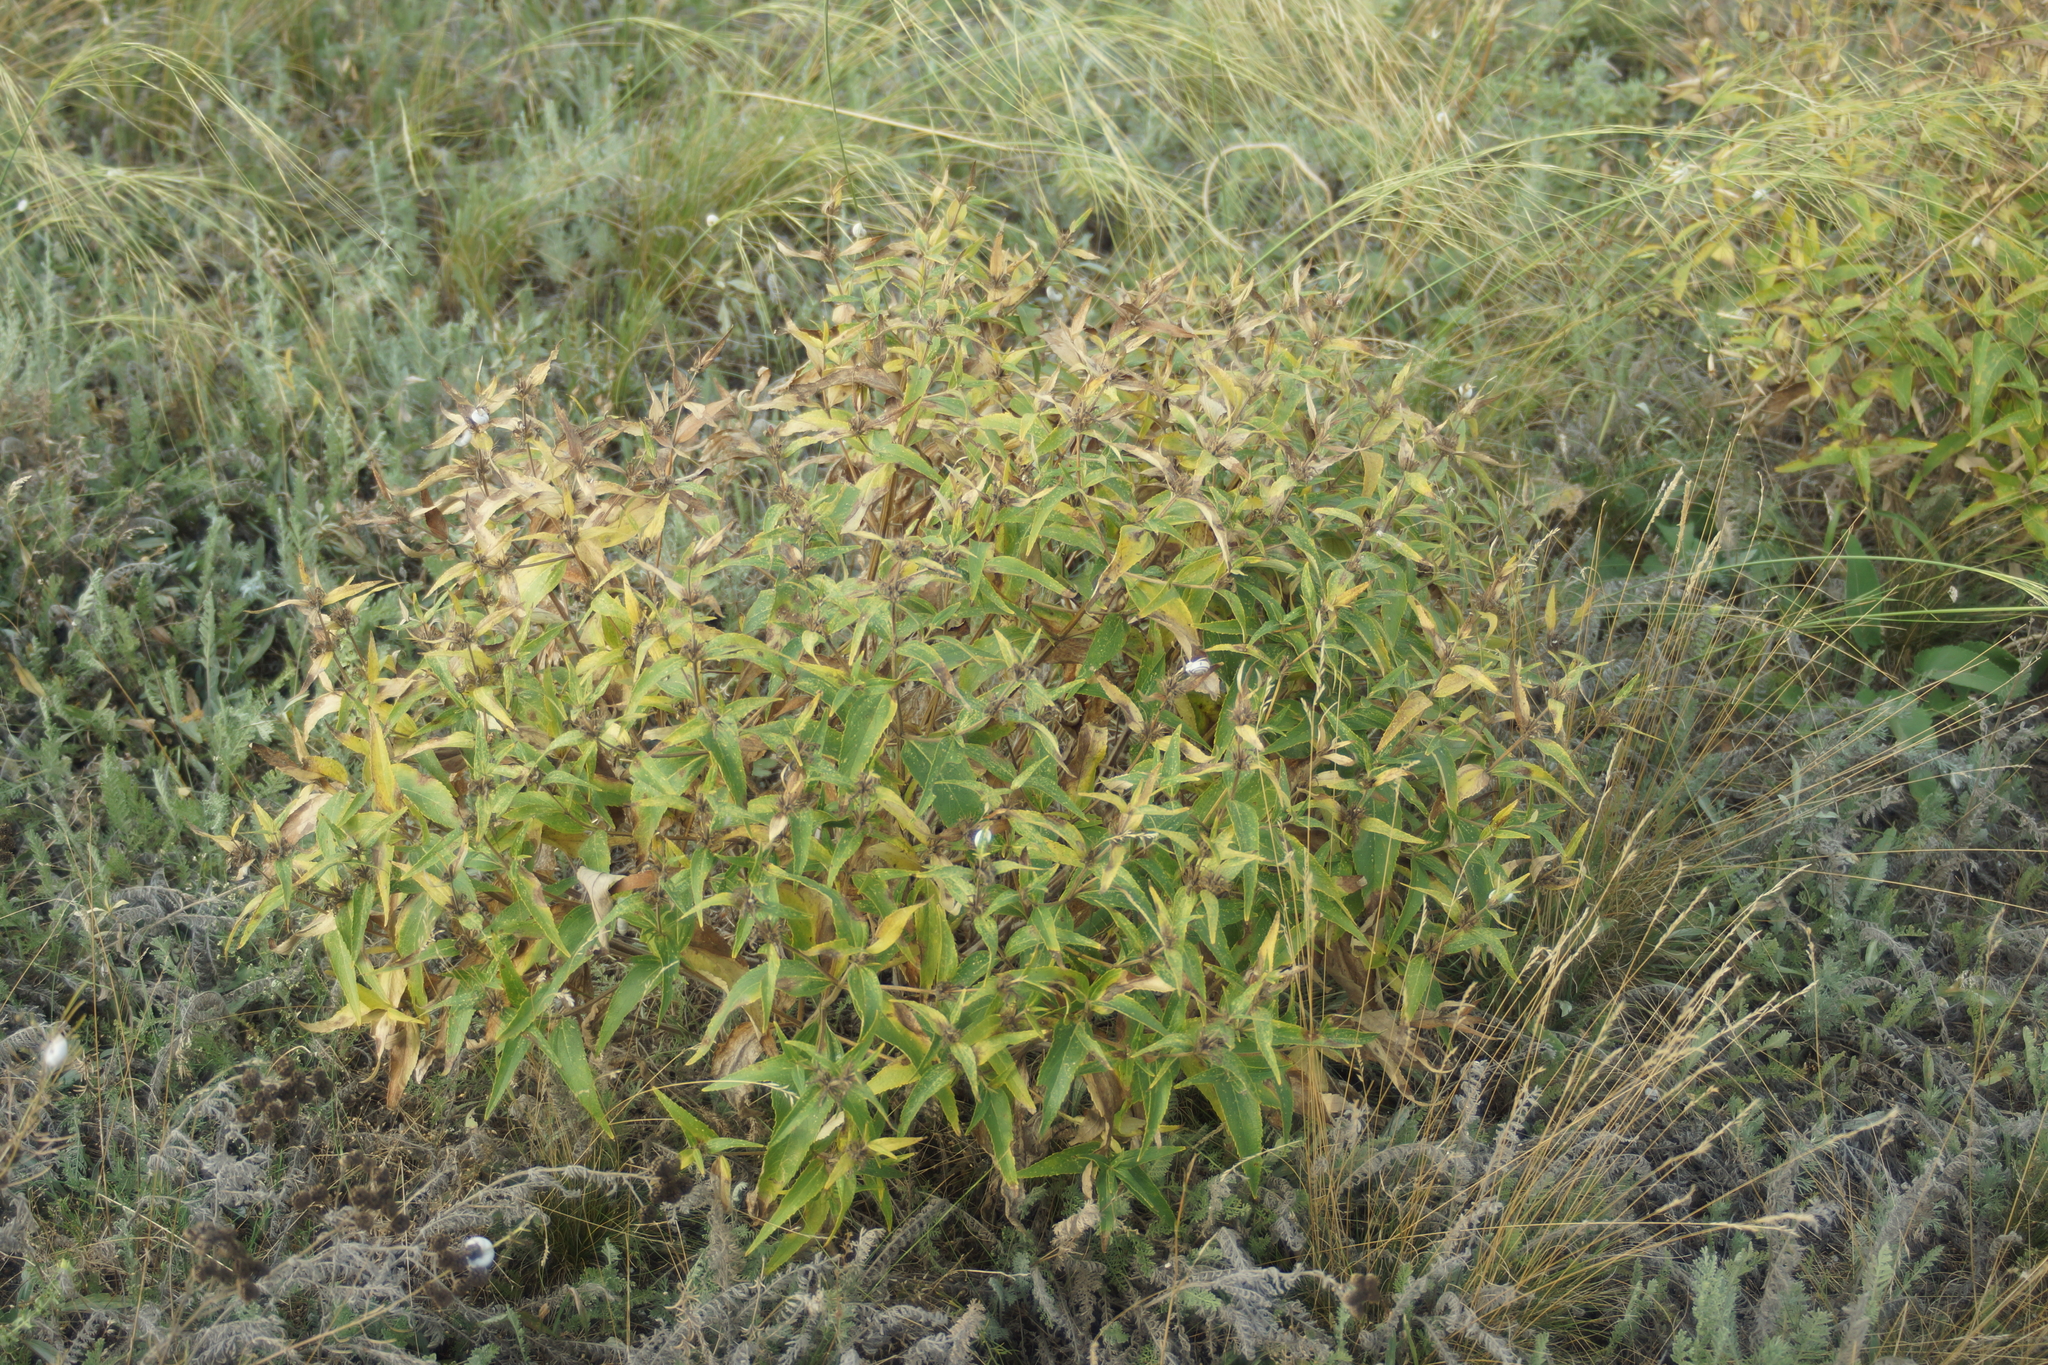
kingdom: Plantae
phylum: Tracheophyta
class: Magnoliopsida
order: Lamiales
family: Lamiaceae
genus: Phlomis
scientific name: Phlomis herba-venti
